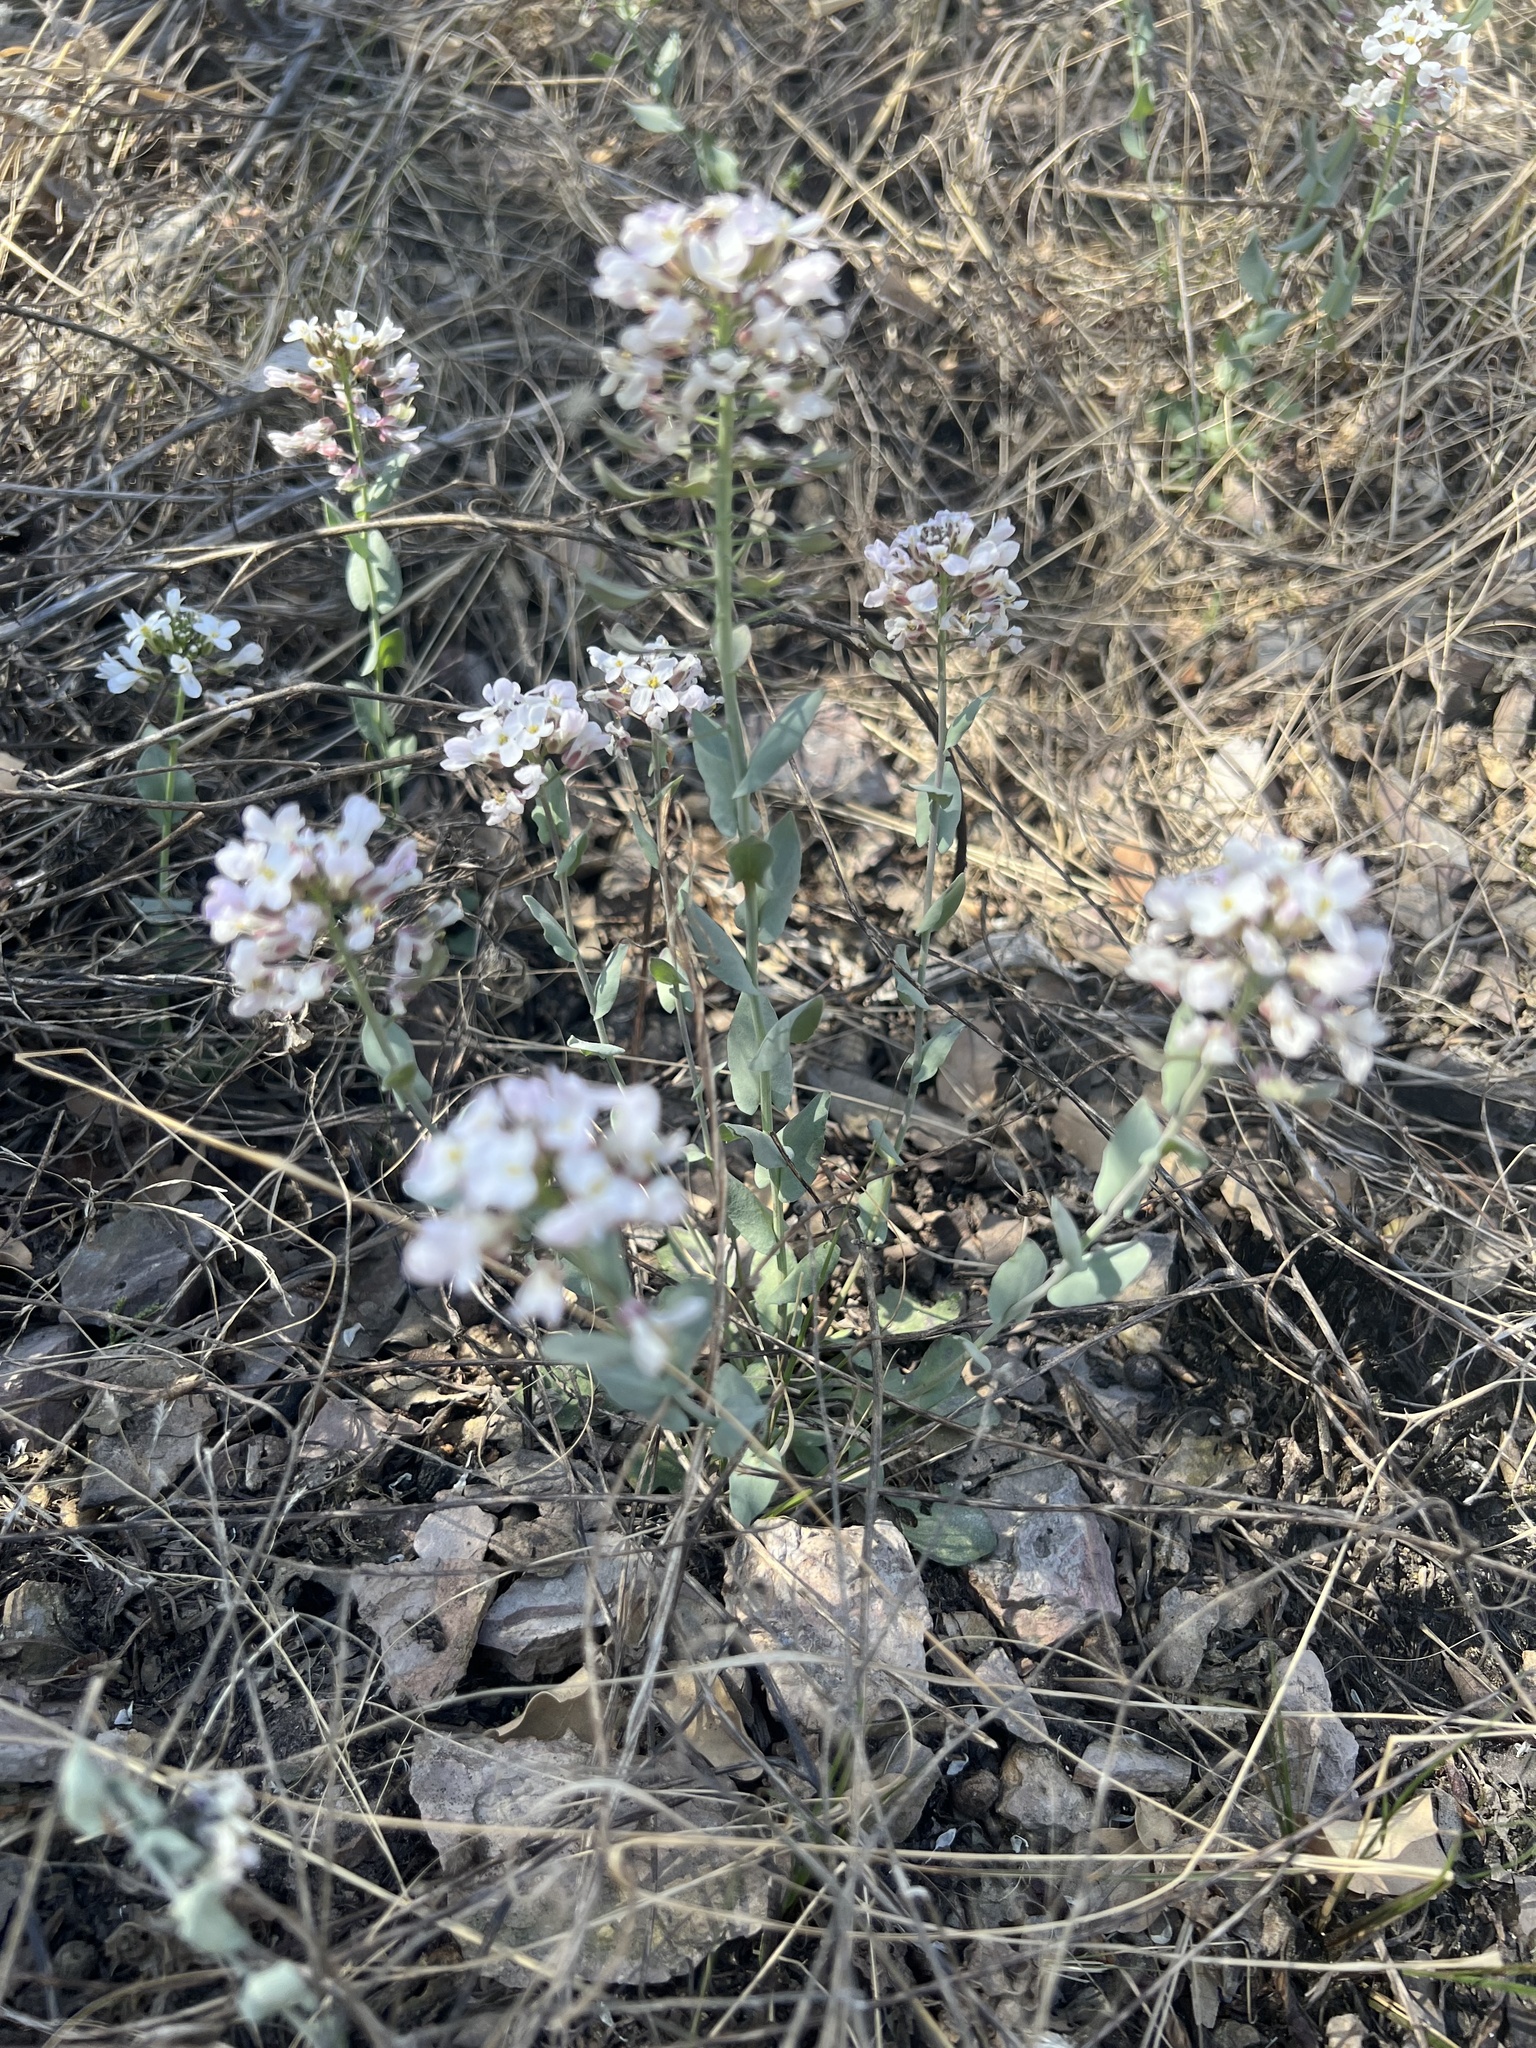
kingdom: Plantae
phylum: Tracheophyta
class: Magnoliopsida
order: Brassicales
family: Brassicaceae
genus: Dimorphocarpa
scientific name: Dimorphocarpa wislizenii
